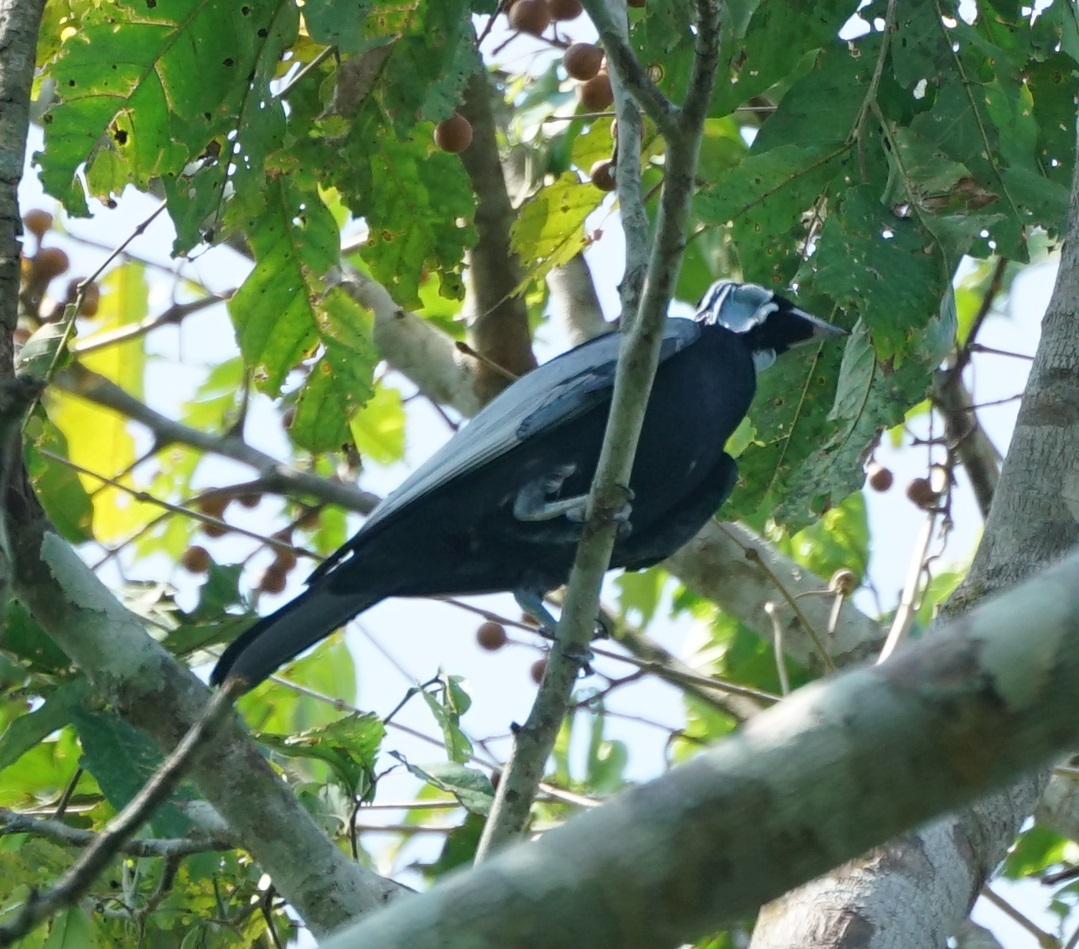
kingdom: Animalia
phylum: Chordata
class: Aves
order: Passeriformes
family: Cotingidae
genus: Gymnoderus
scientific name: Gymnoderus foetidus
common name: Bare-necked fruitcrow
